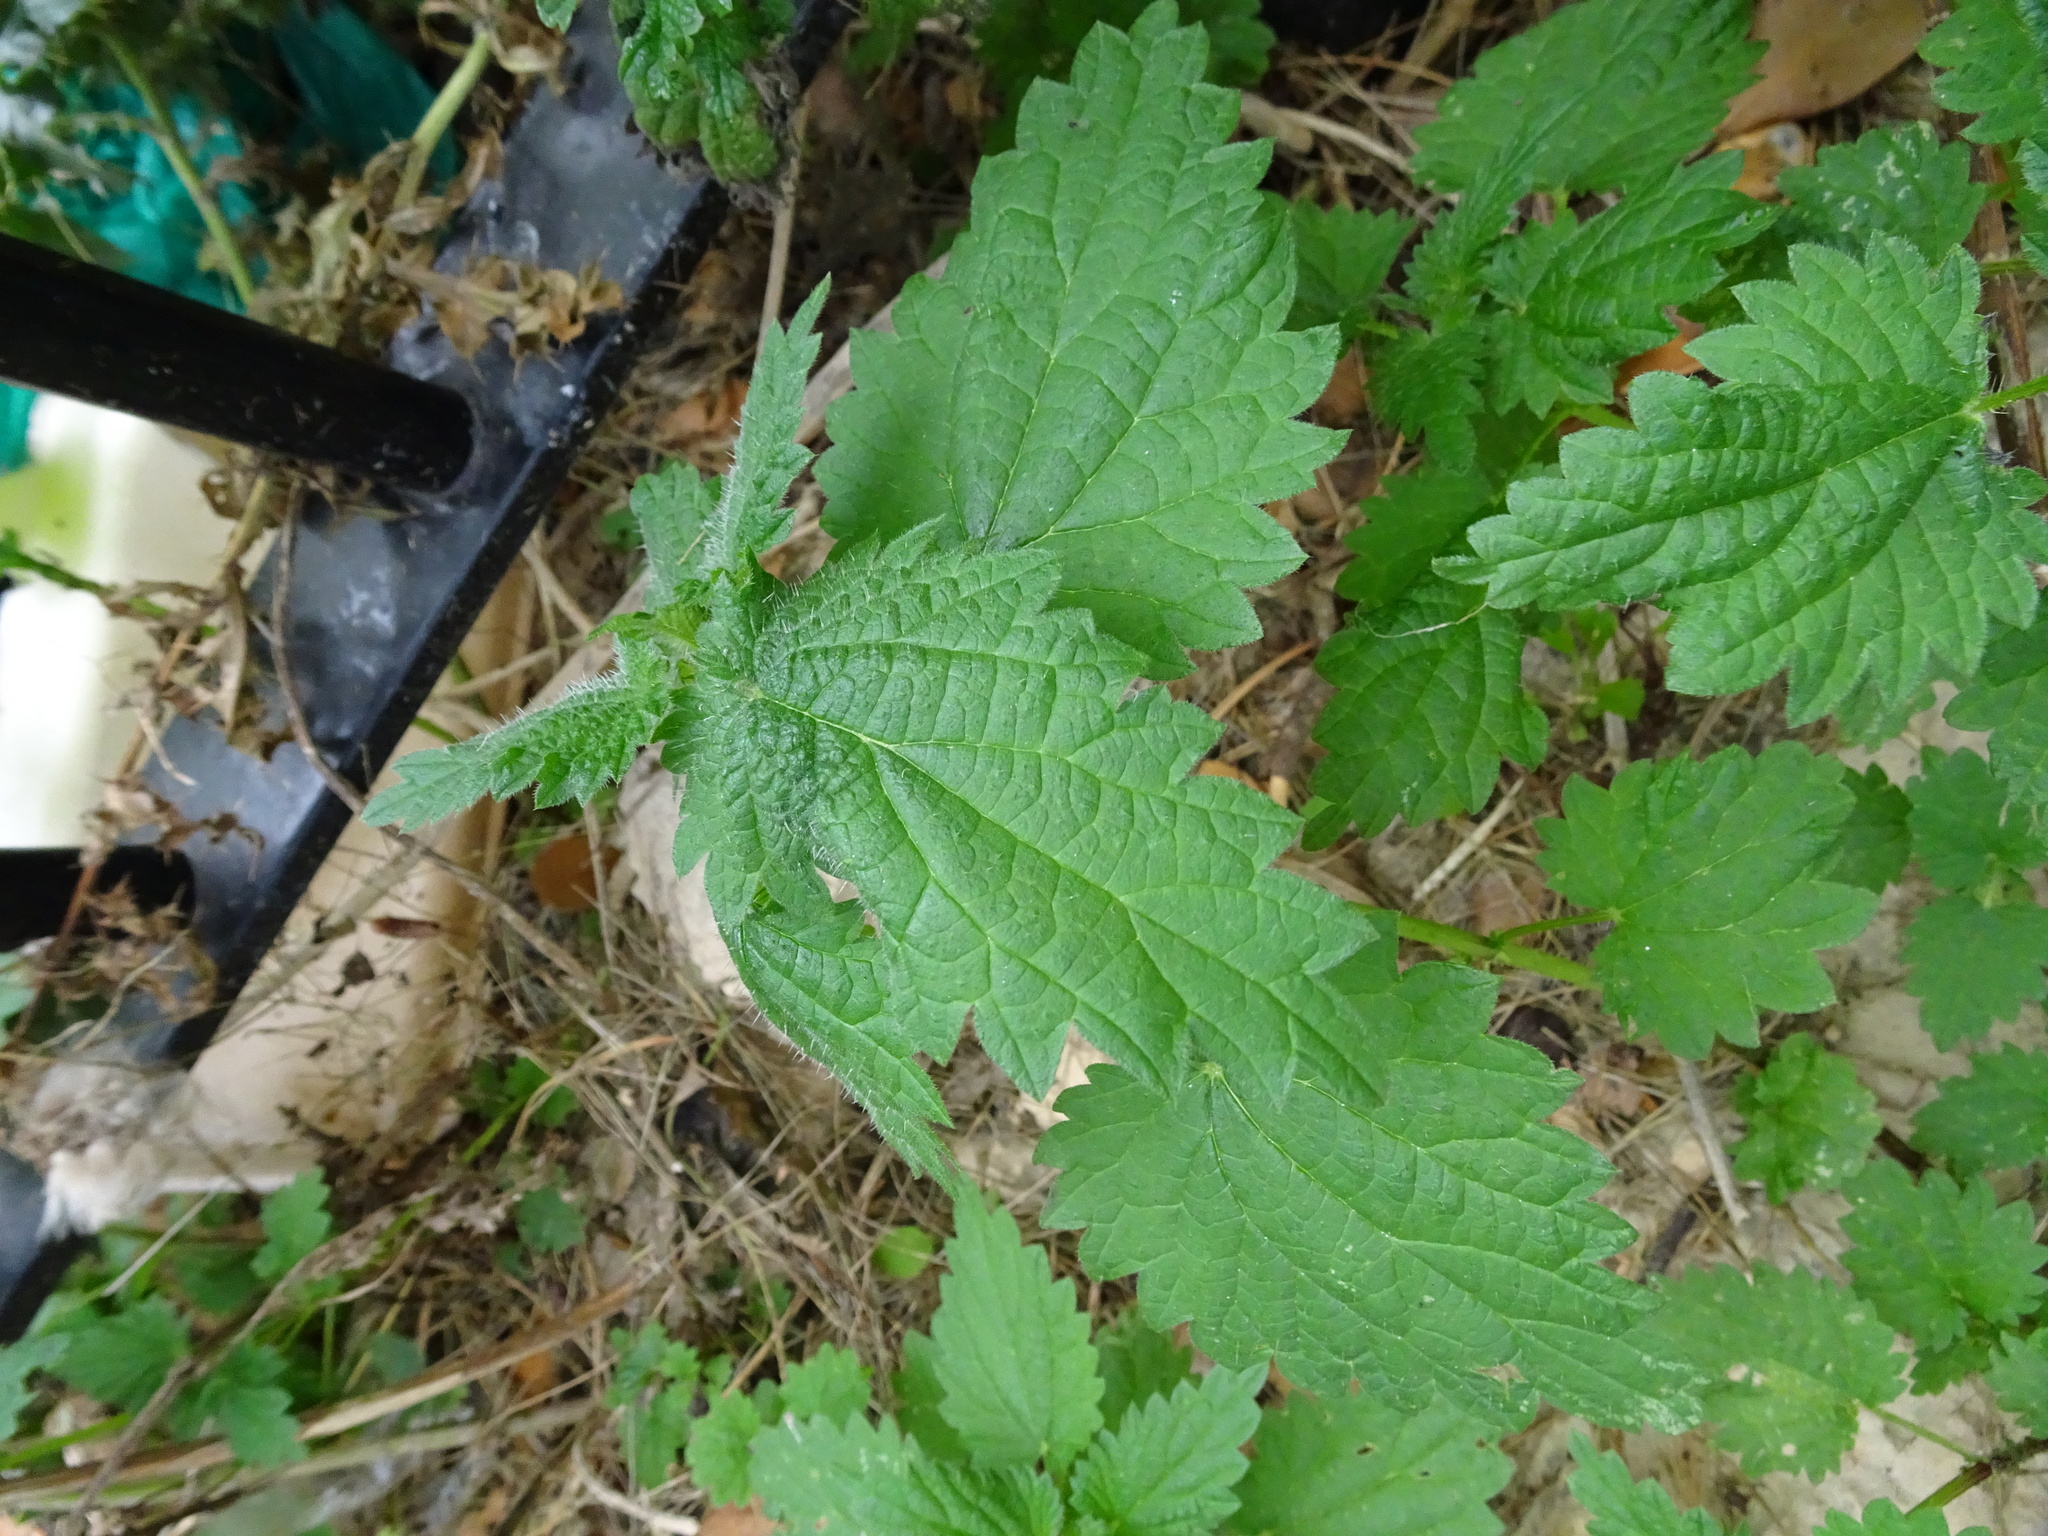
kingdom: Plantae
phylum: Tracheophyta
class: Magnoliopsida
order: Rosales
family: Urticaceae
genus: Urtica
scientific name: Urtica dioica
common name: Common nettle
